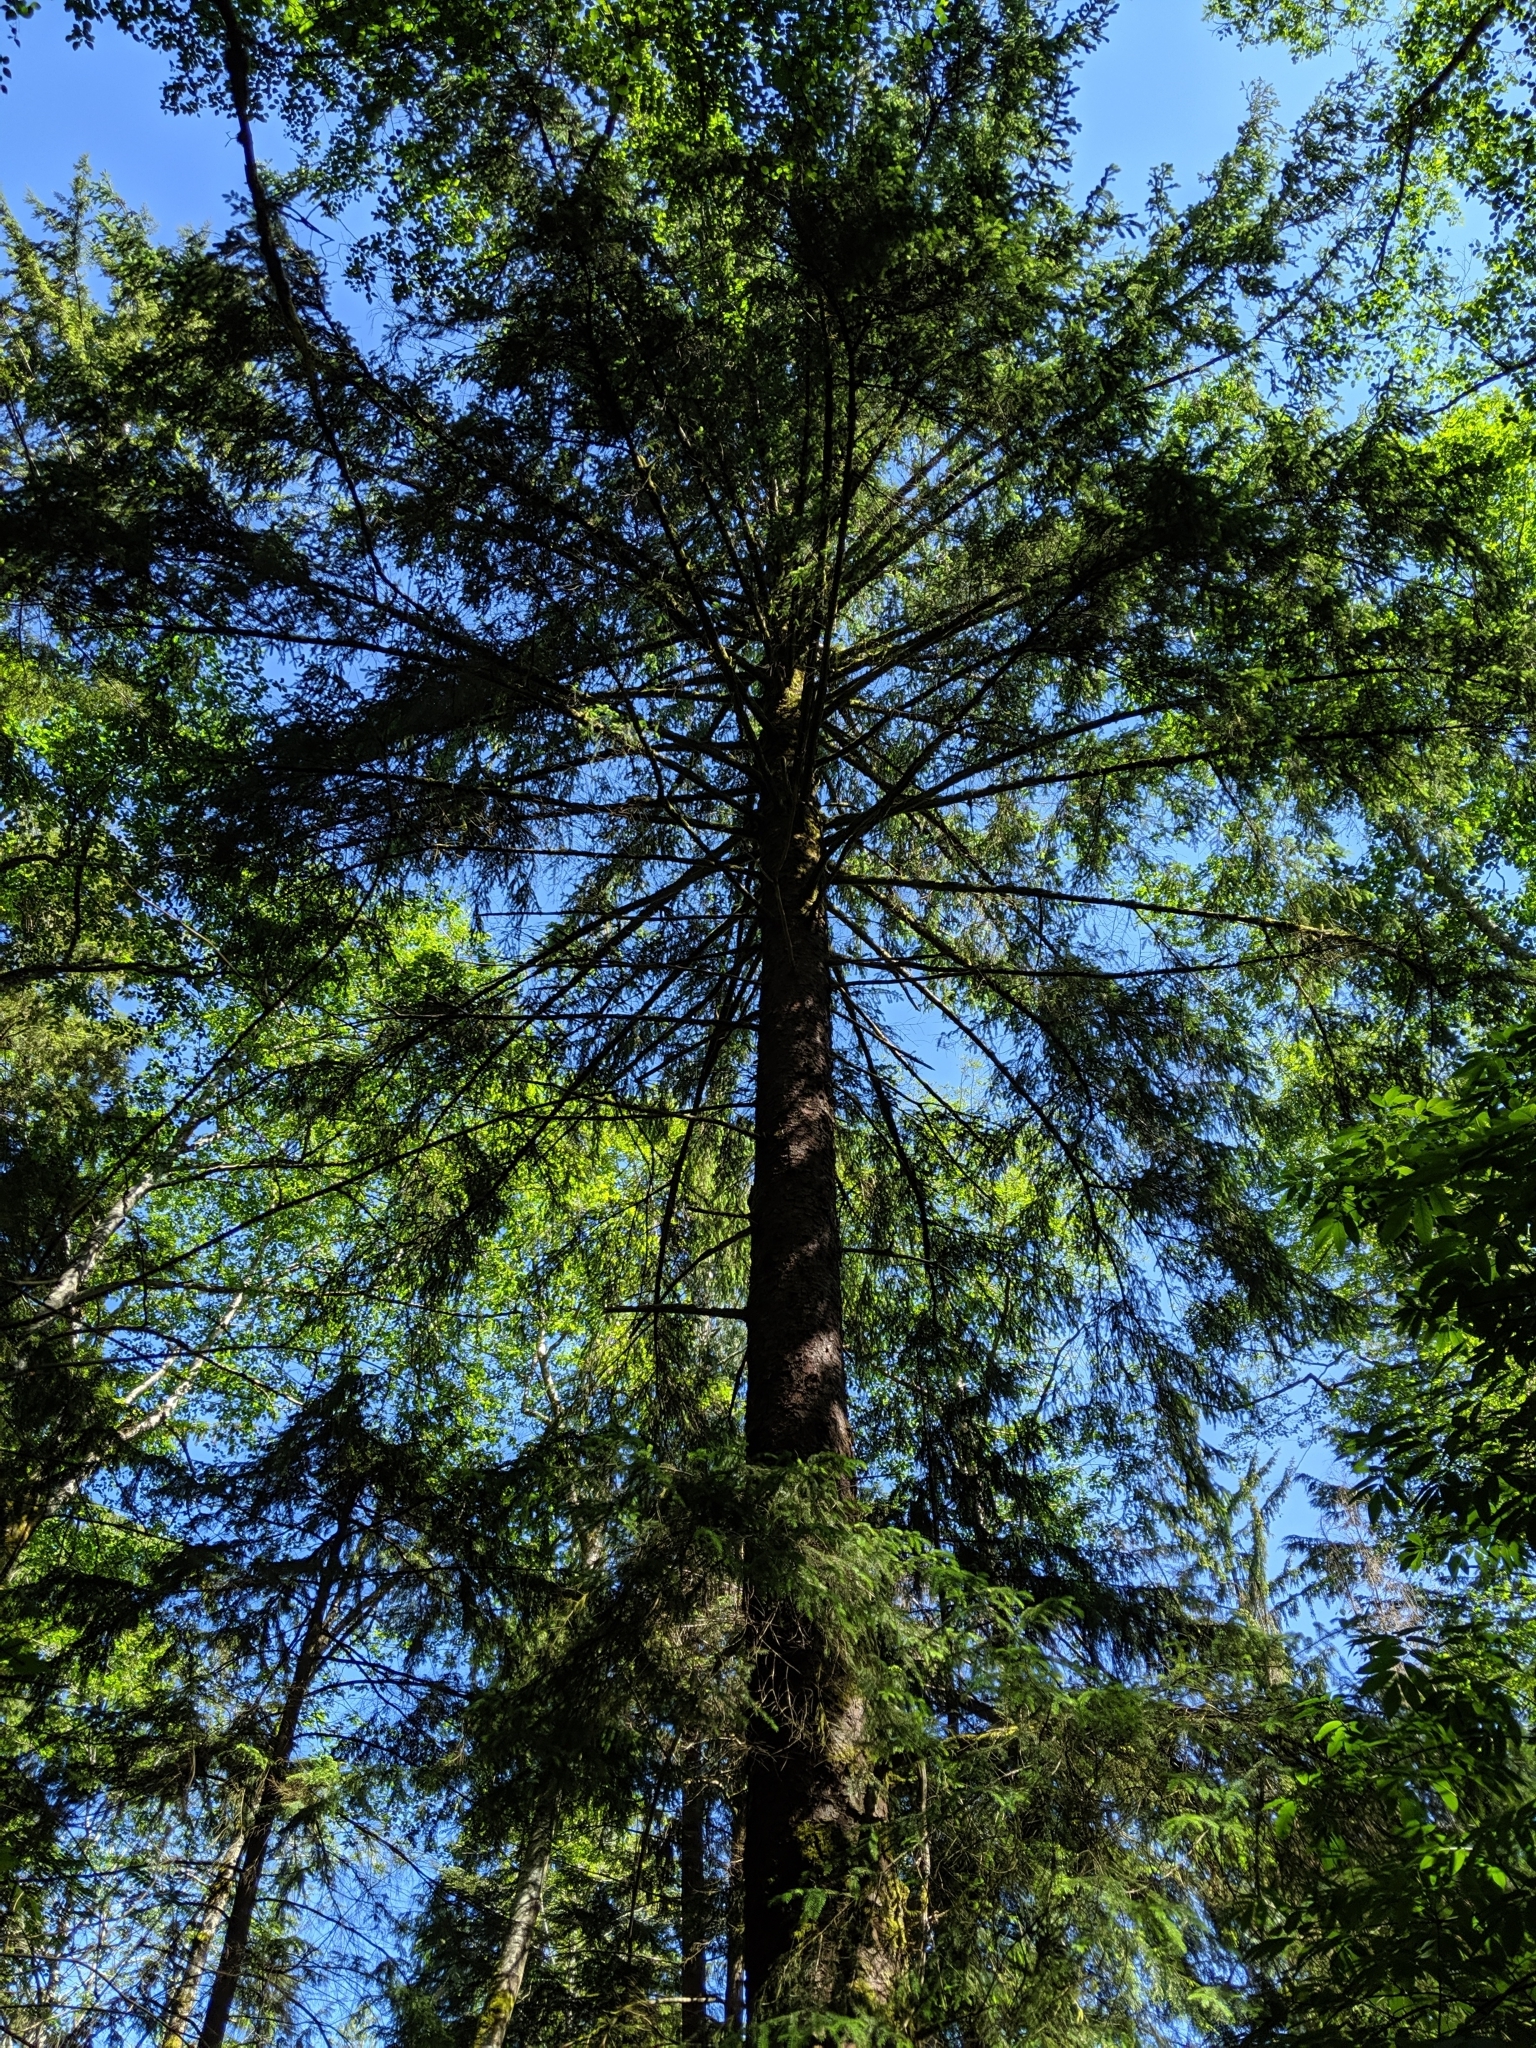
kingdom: Plantae
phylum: Tracheophyta
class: Pinopsida
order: Pinales
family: Pinaceae
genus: Picea
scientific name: Picea sitchensis
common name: Sitka spruce
